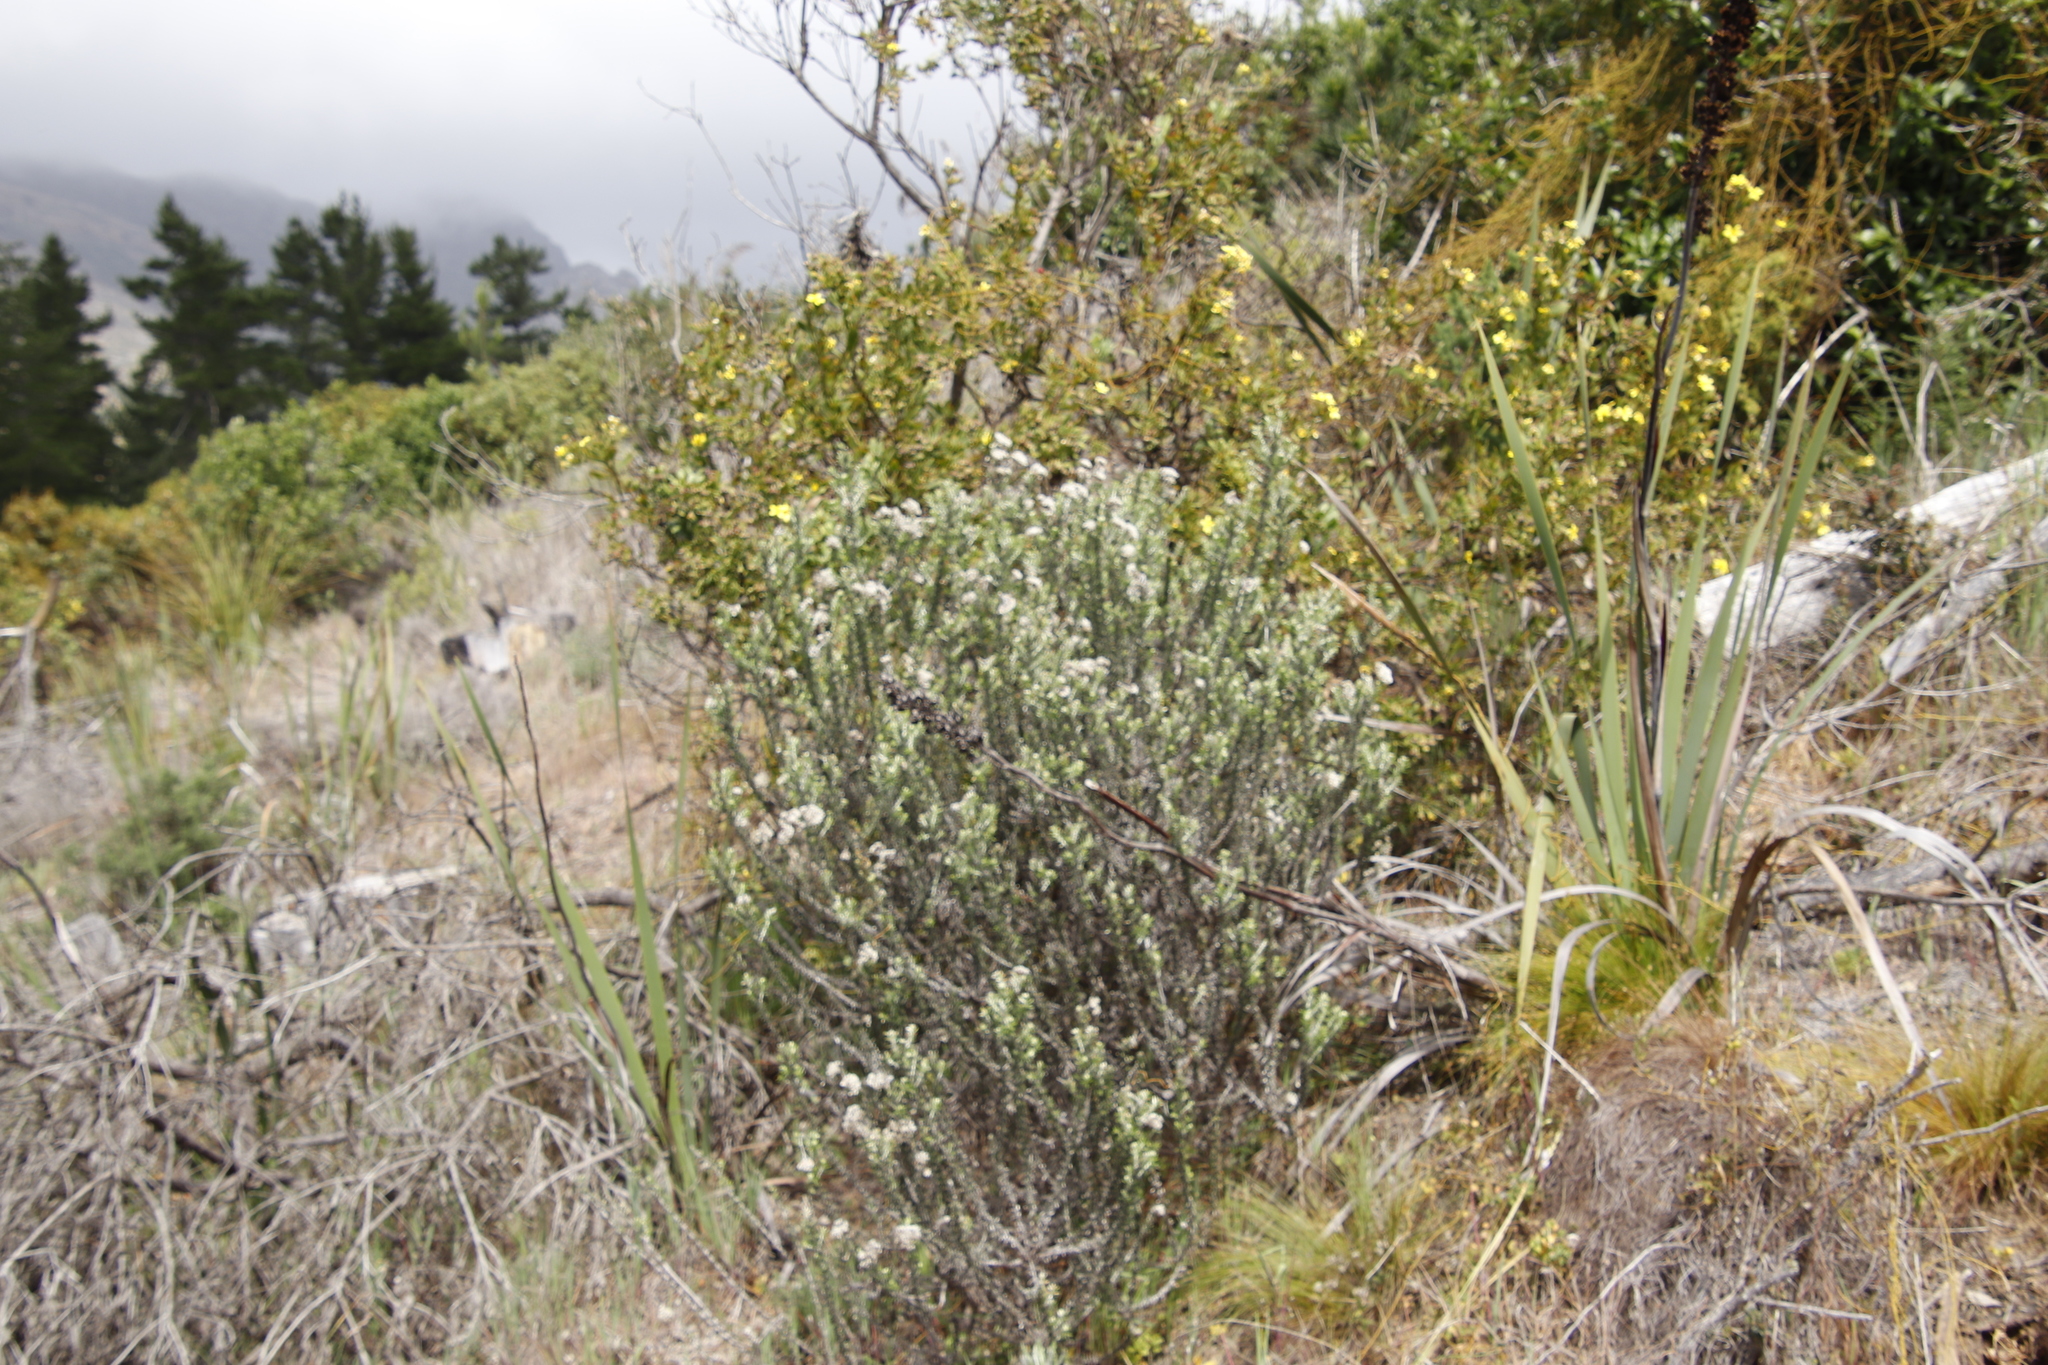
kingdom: Plantae
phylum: Tracheophyta
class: Magnoliopsida
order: Sapindales
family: Anacardiaceae
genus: Searsia
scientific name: Searsia lucida
